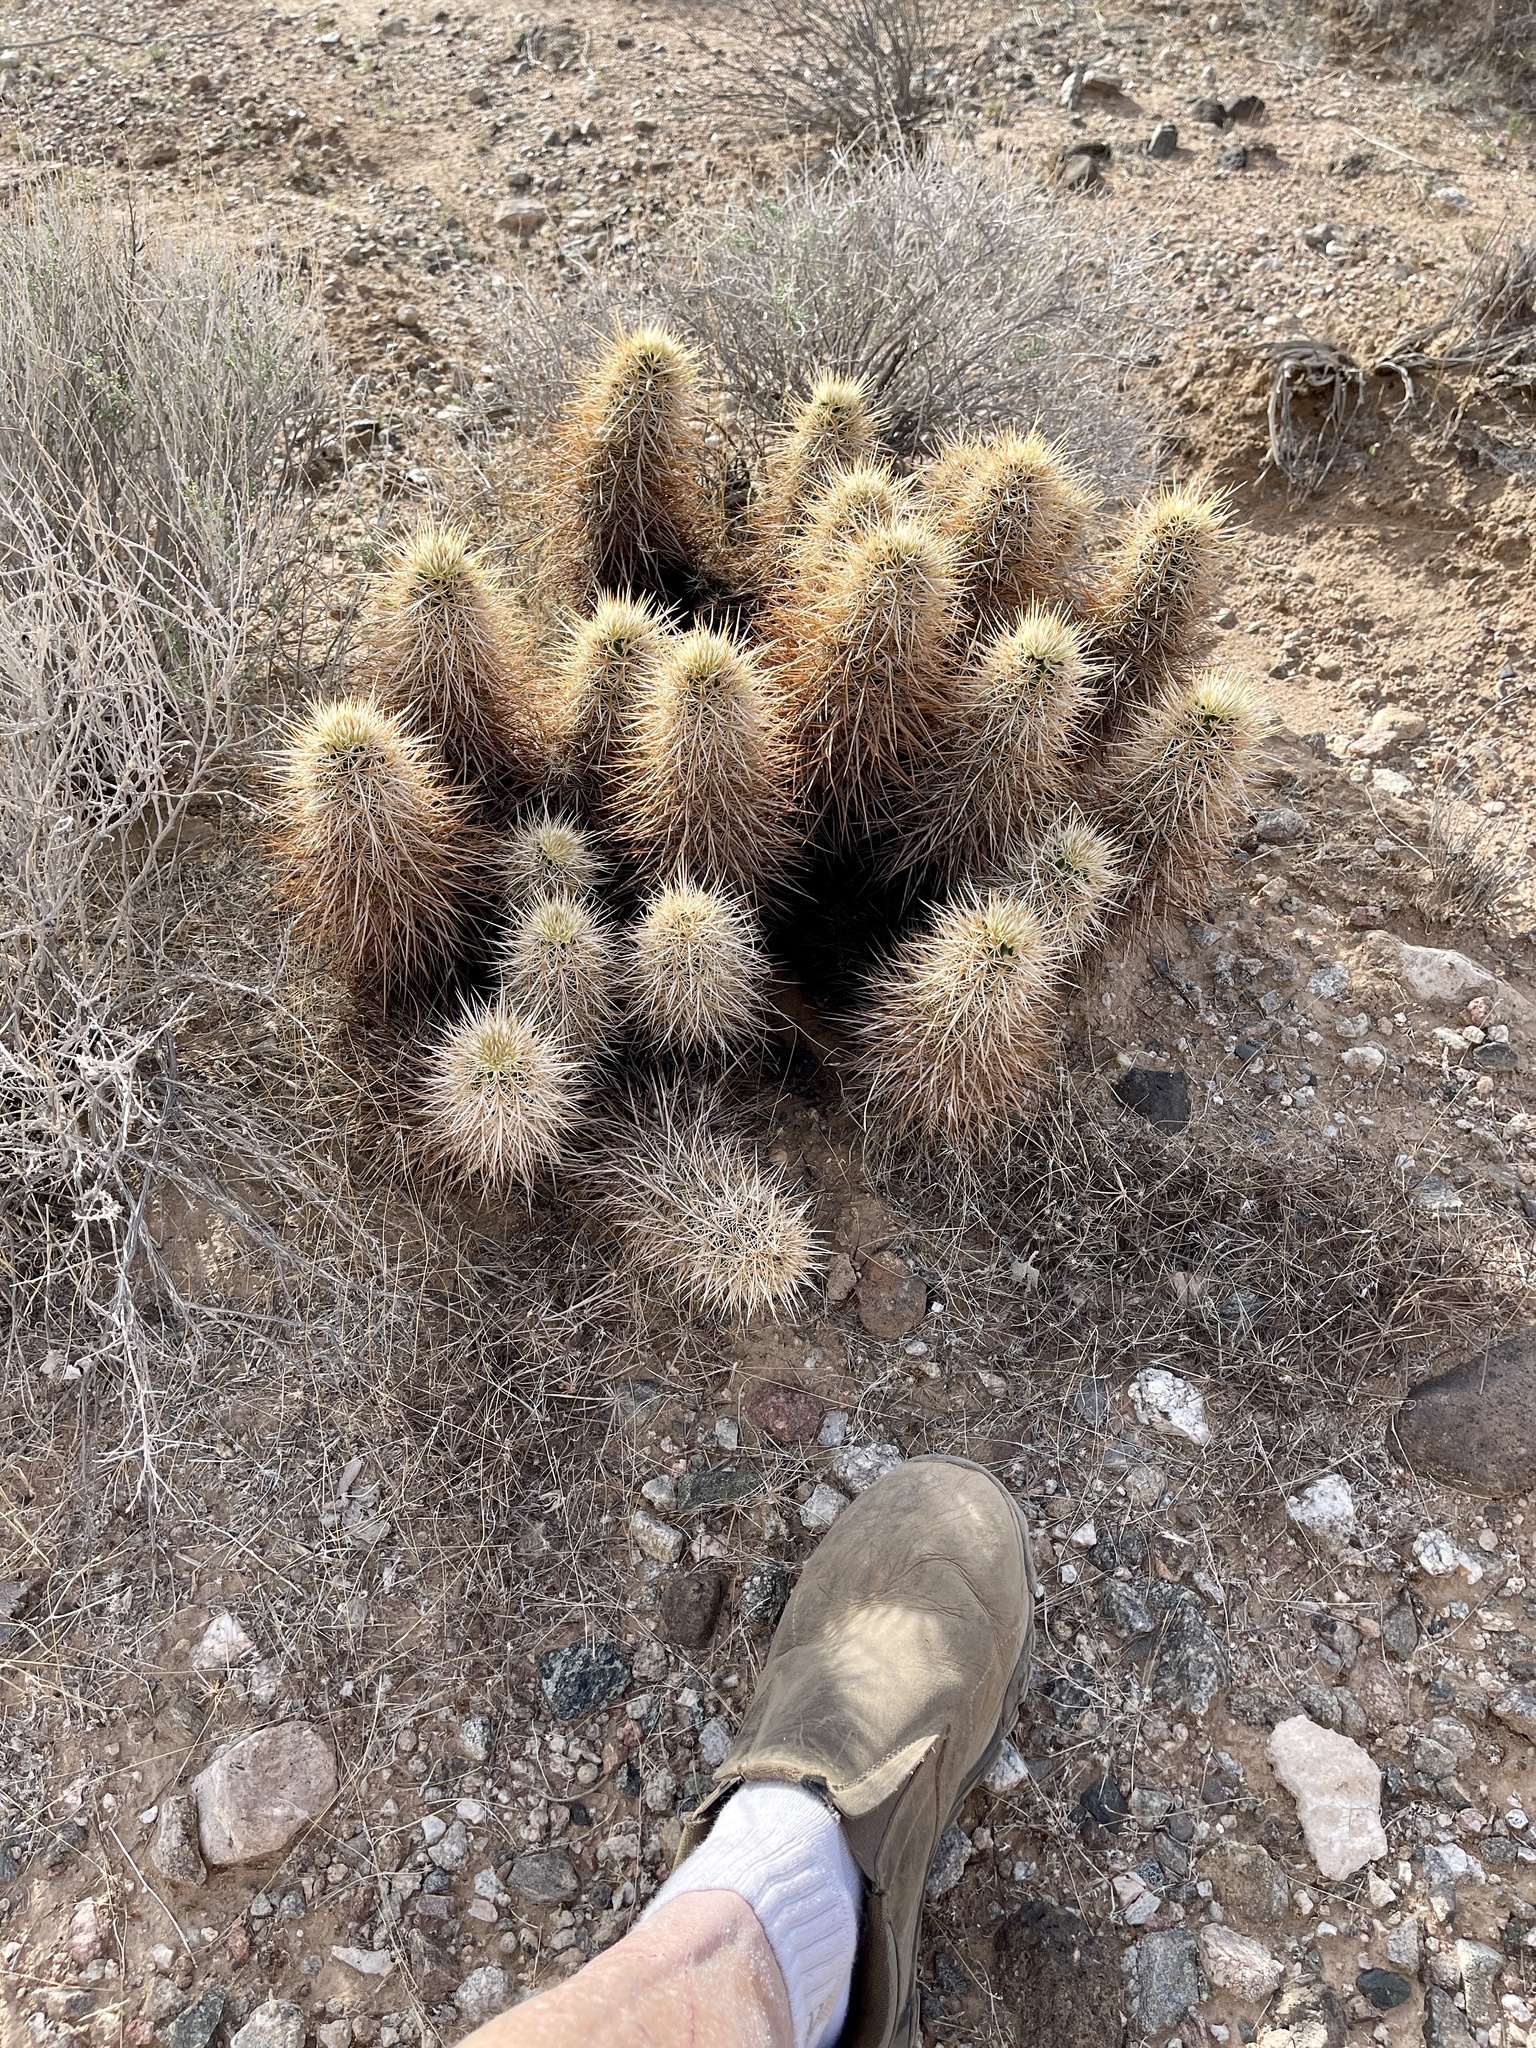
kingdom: Plantae
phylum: Tracheophyta
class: Magnoliopsida
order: Caryophyllales
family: Cactaceae
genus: Echinocereus
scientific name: Echinocereus engelmannii
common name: Engelmann's hedgehog cactus
